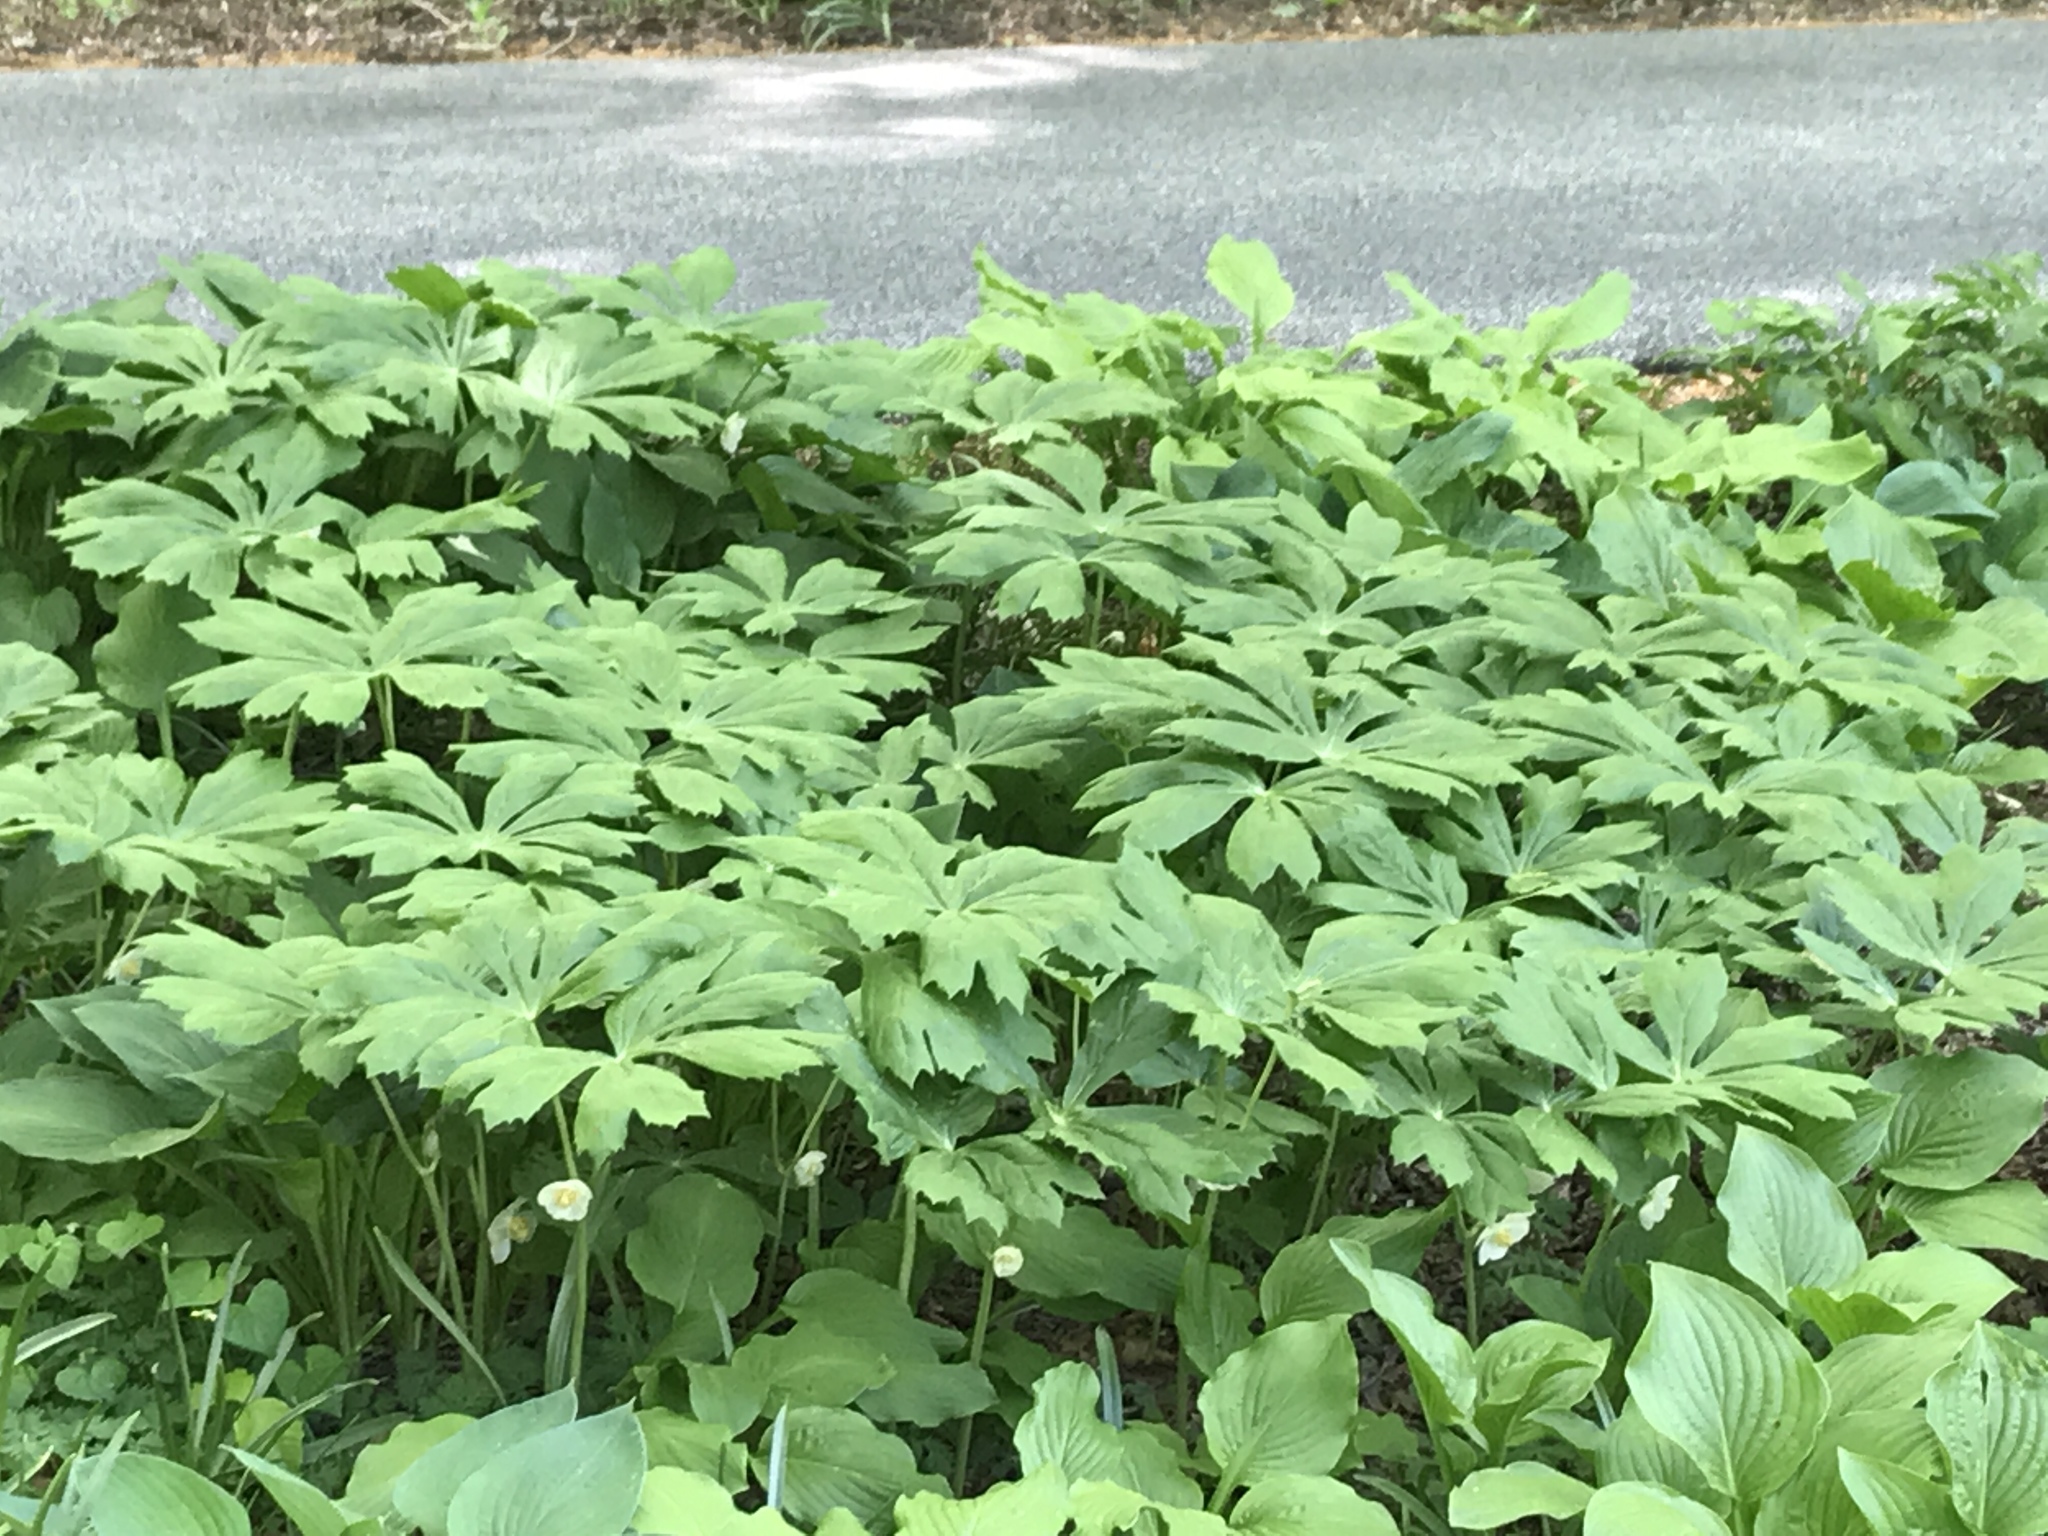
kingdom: Plantae
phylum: Tracheophyta
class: Magnoliopsida
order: Ranunculales
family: Berberidaceae
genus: Podophyllum
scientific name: Podophyllum peltatum
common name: Wild mandrake
